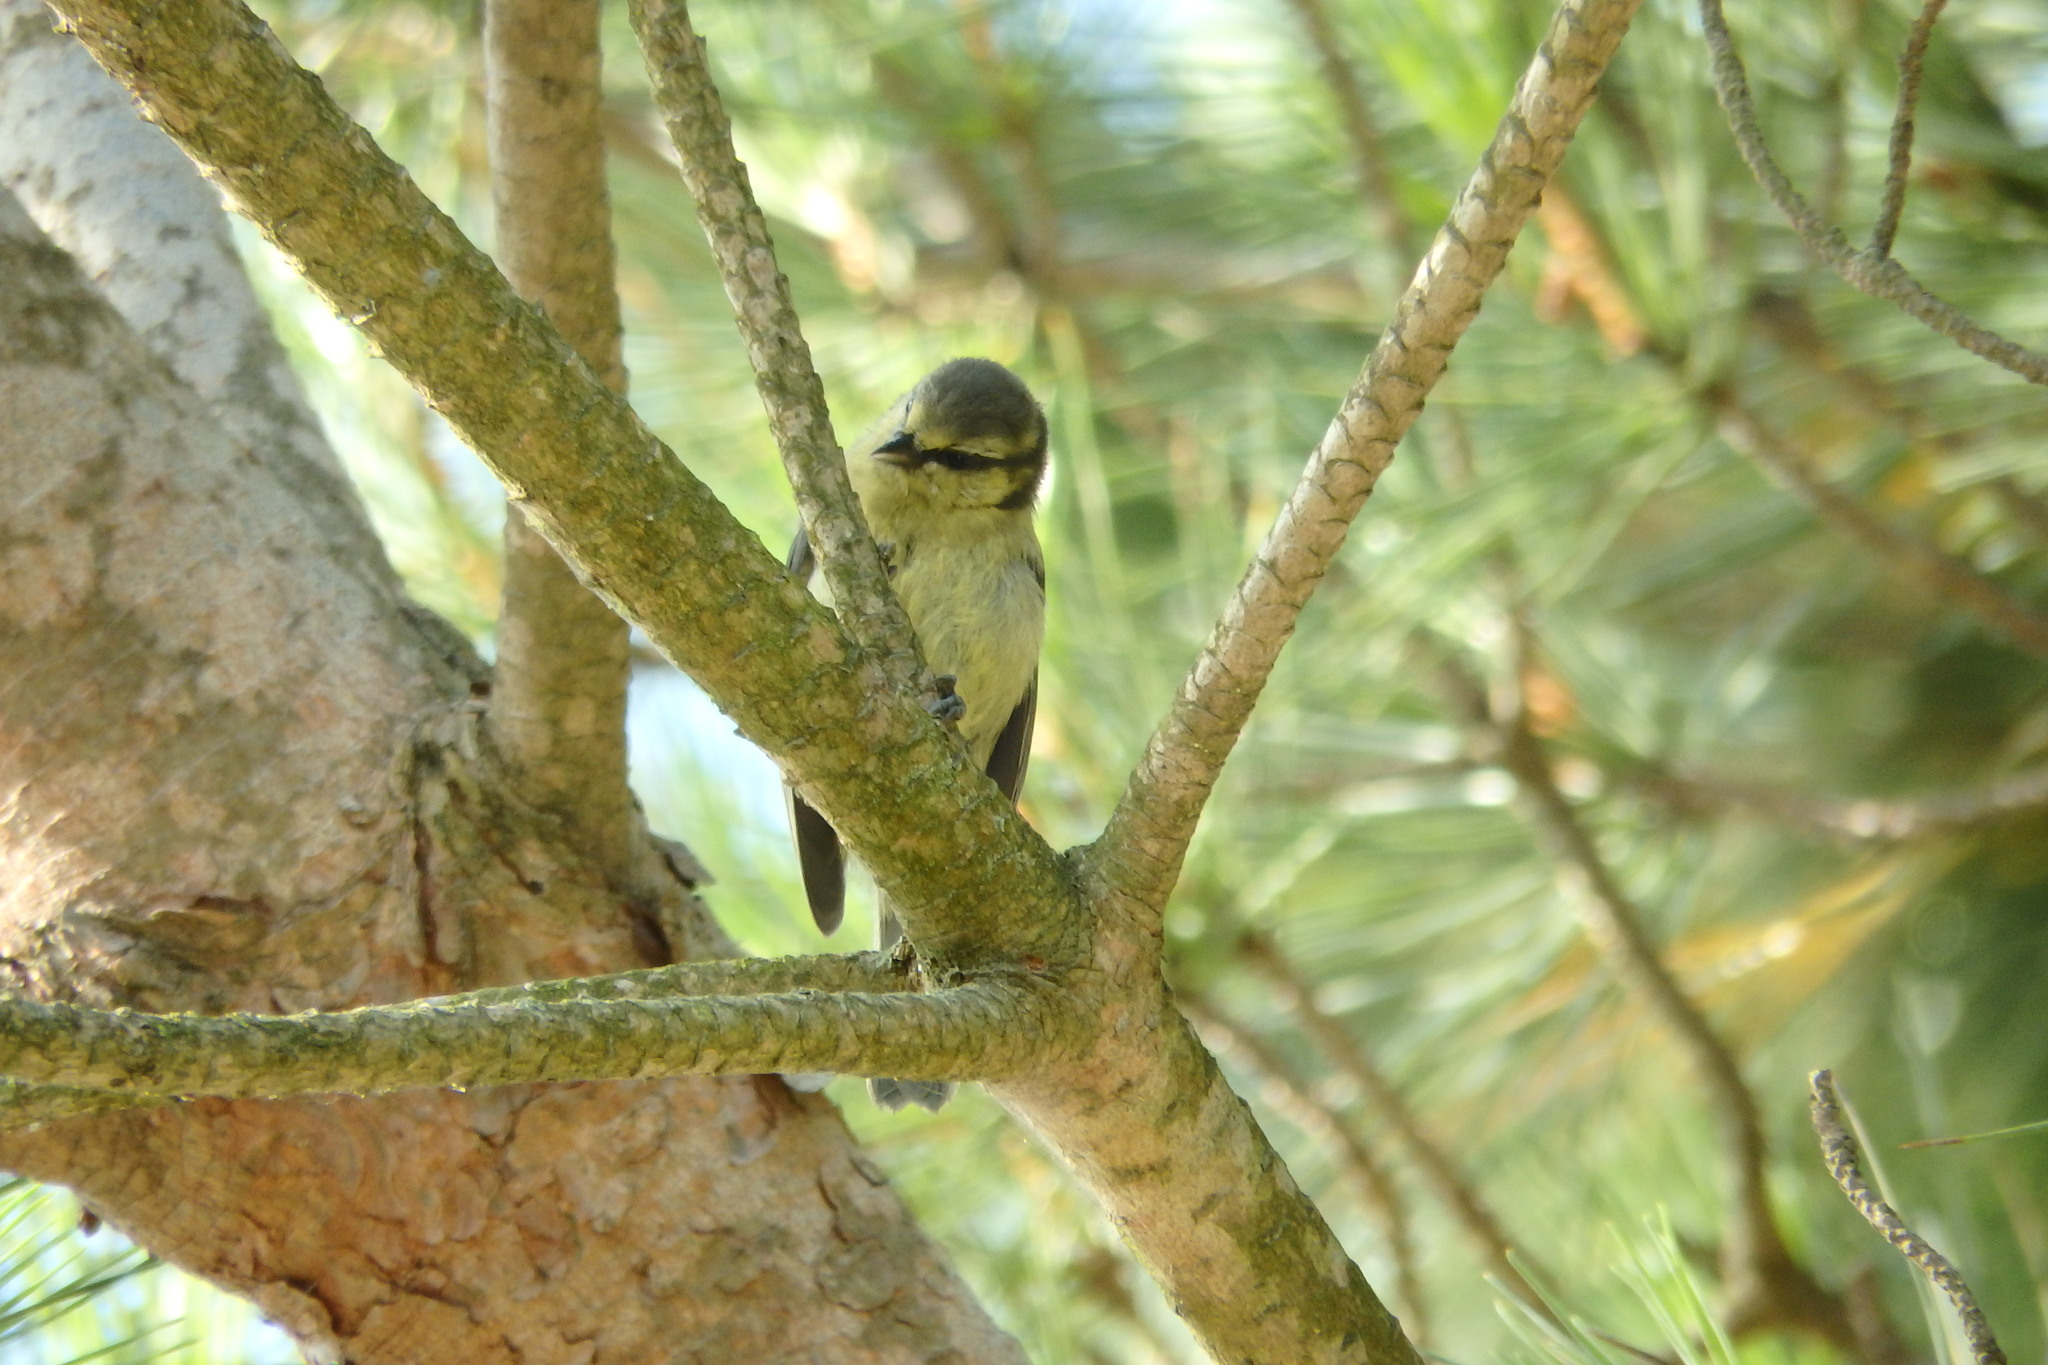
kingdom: Animalia
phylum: Chordata
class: Aves
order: Passeriformes
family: Paridae
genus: Cyanistes
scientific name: Cyanistes caeruleus
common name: Eurasian blue tit
